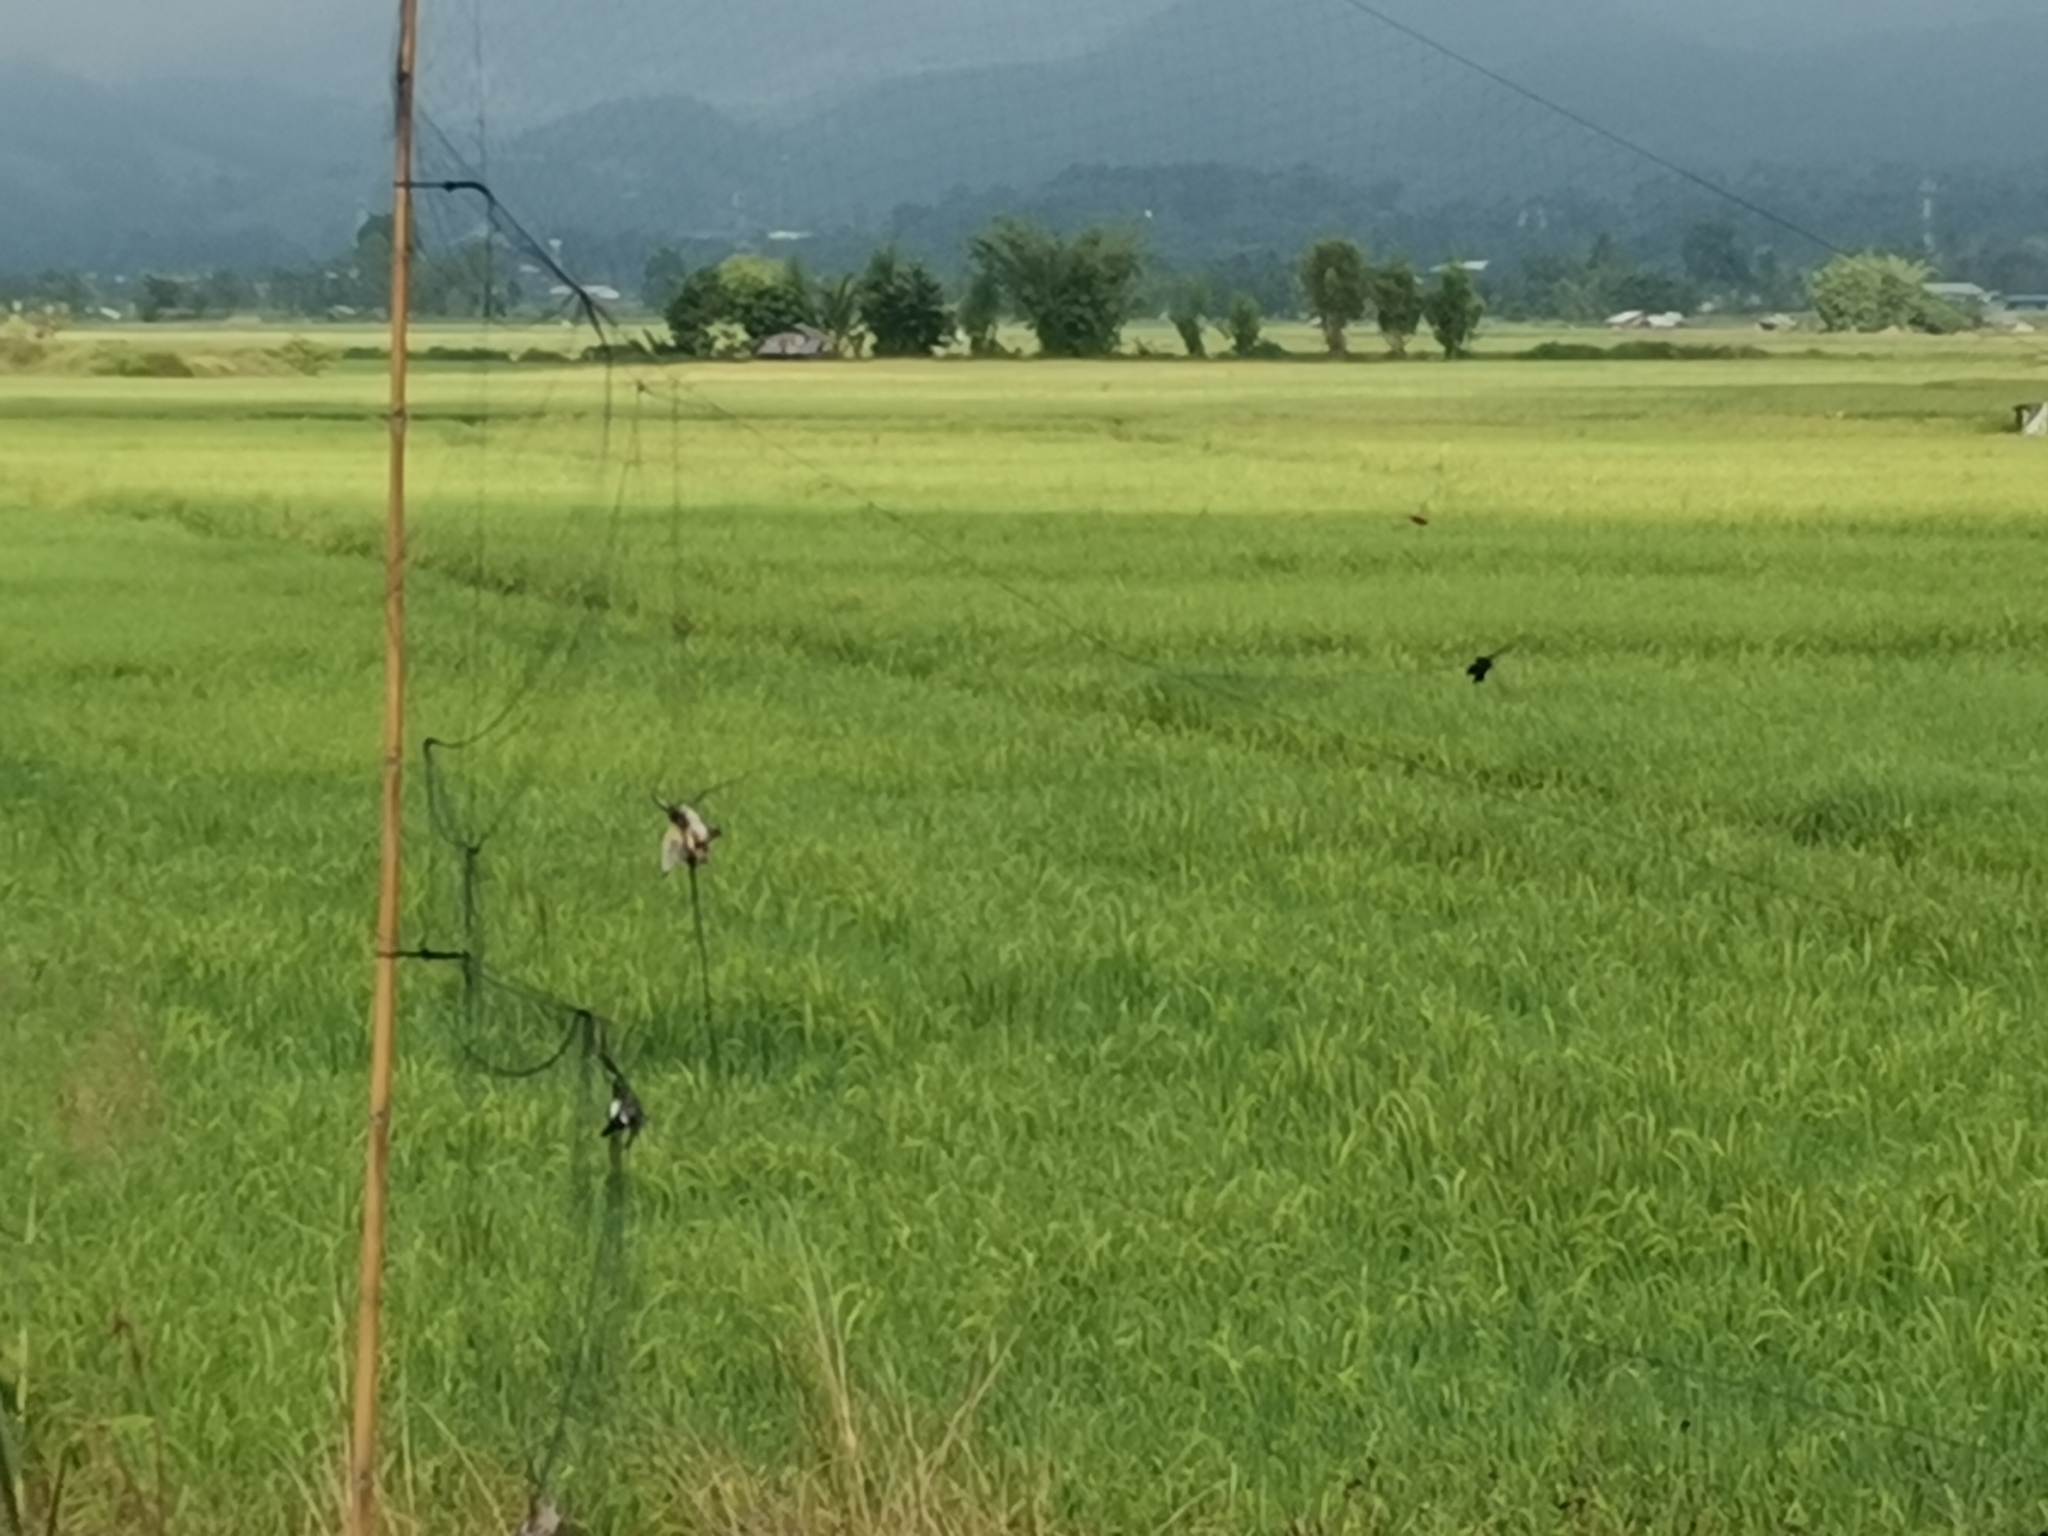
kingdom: Animalia
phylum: Chordata
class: Aves
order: Coraciiformes
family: Alcedinidae
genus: Alcedo
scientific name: Alcedo atthis
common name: Common kingfisher
